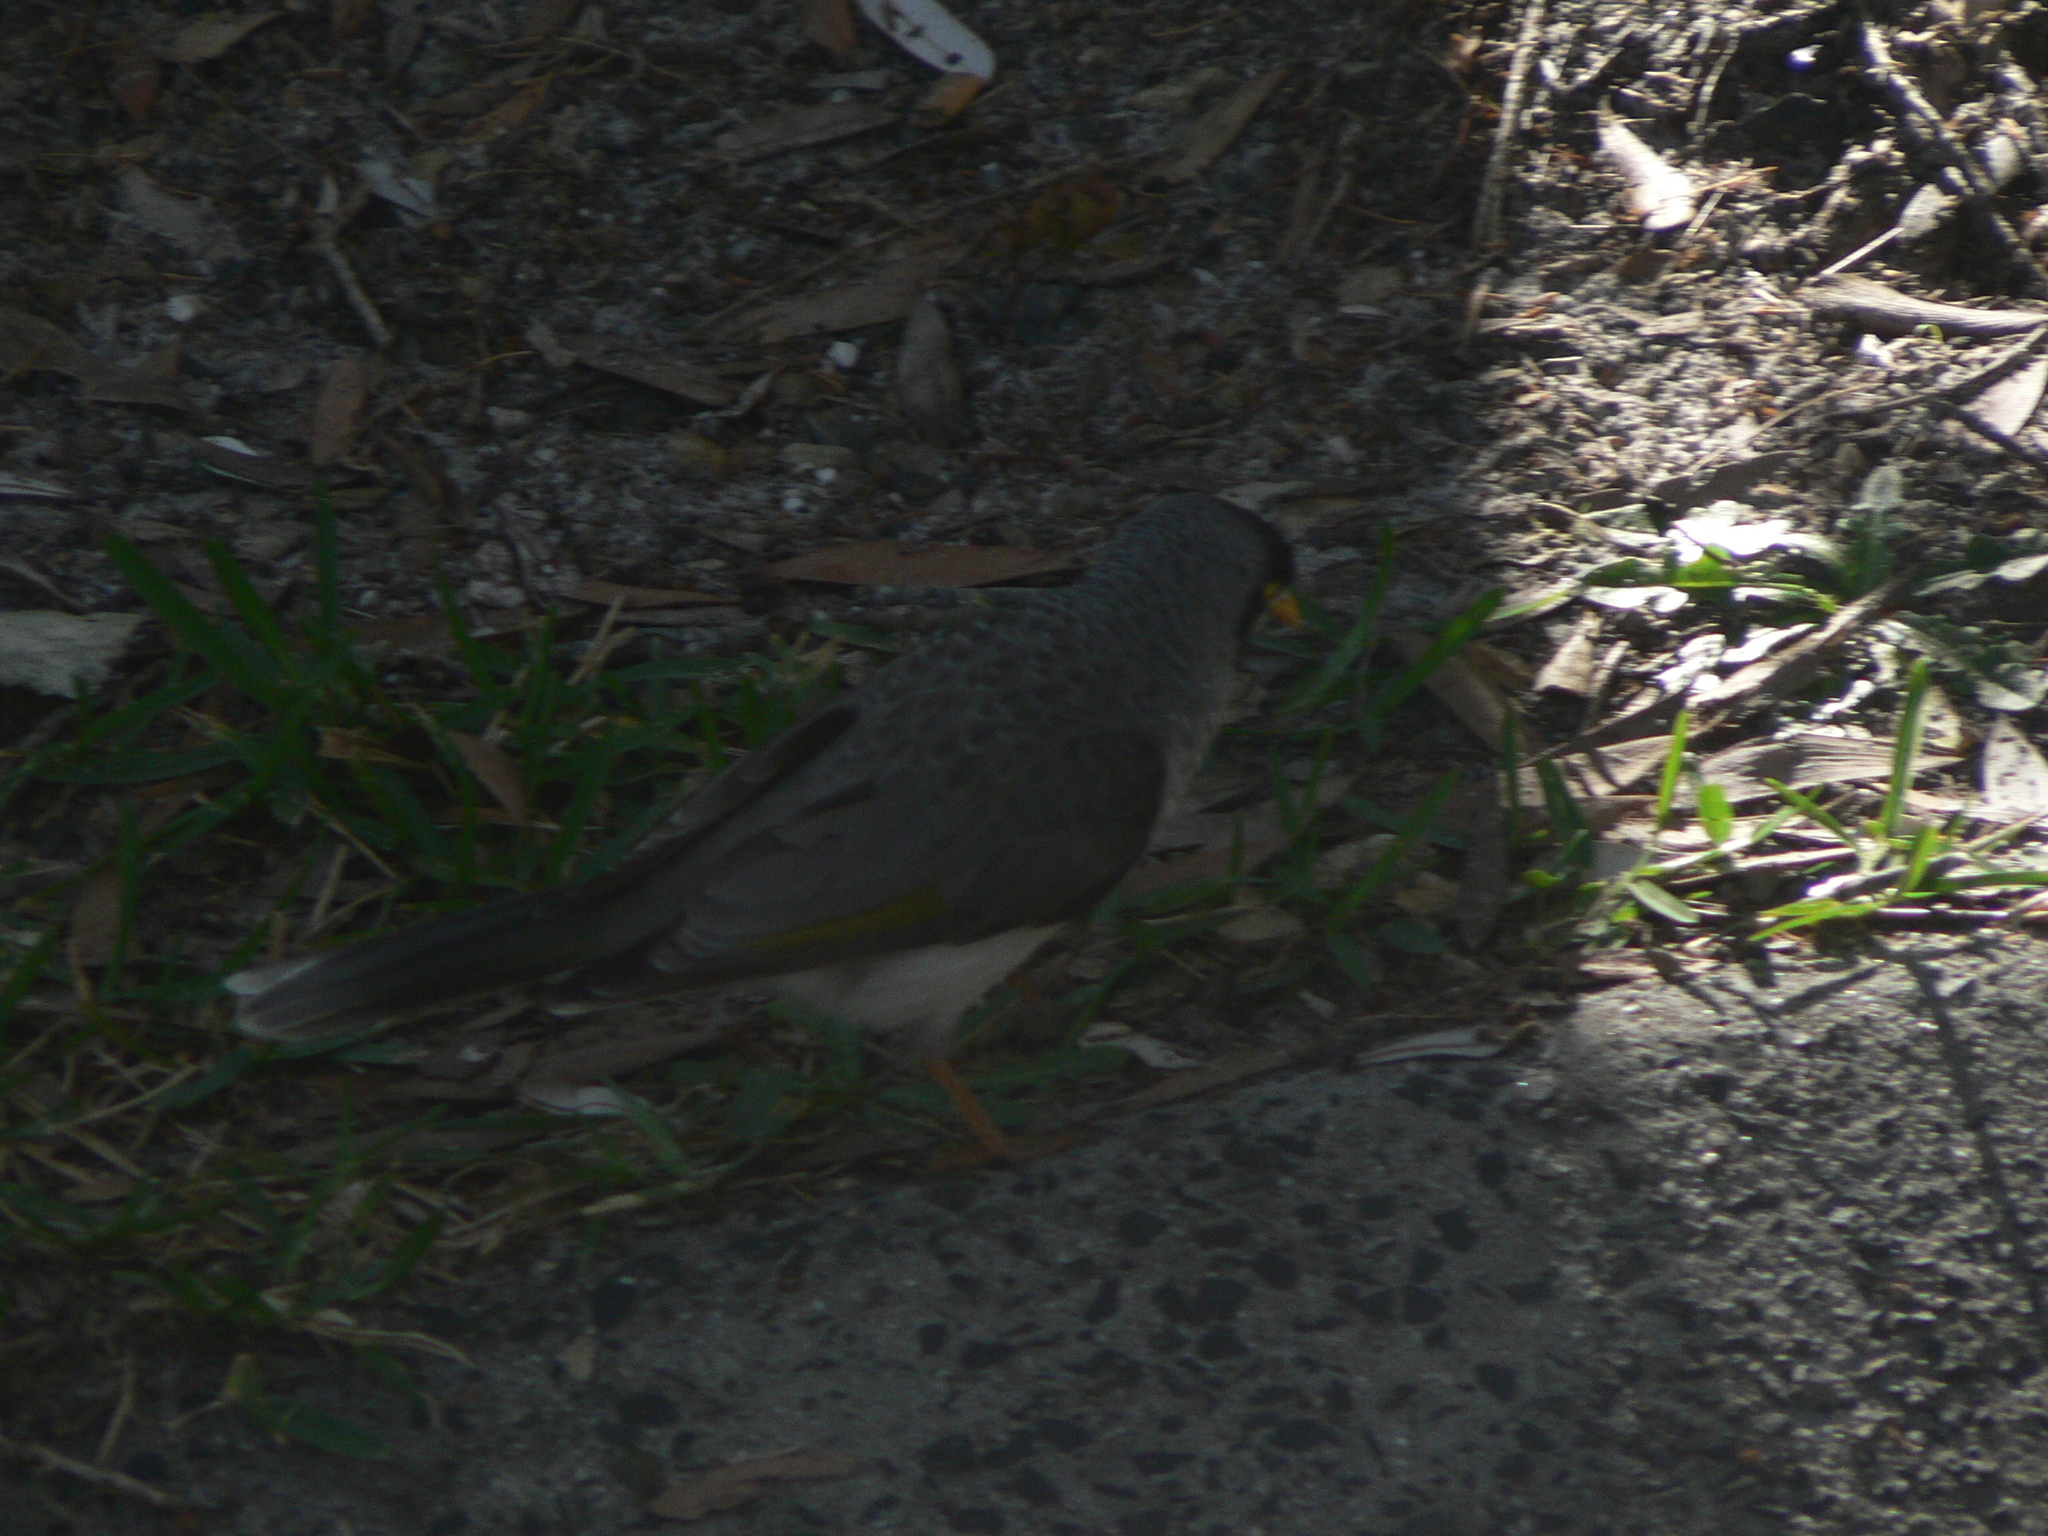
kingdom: Animalia
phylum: Chordata
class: Aves
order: Passeriformes
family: Meliphagidae
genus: Manorina
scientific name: Manorina melanocephala
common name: Noisy miner
